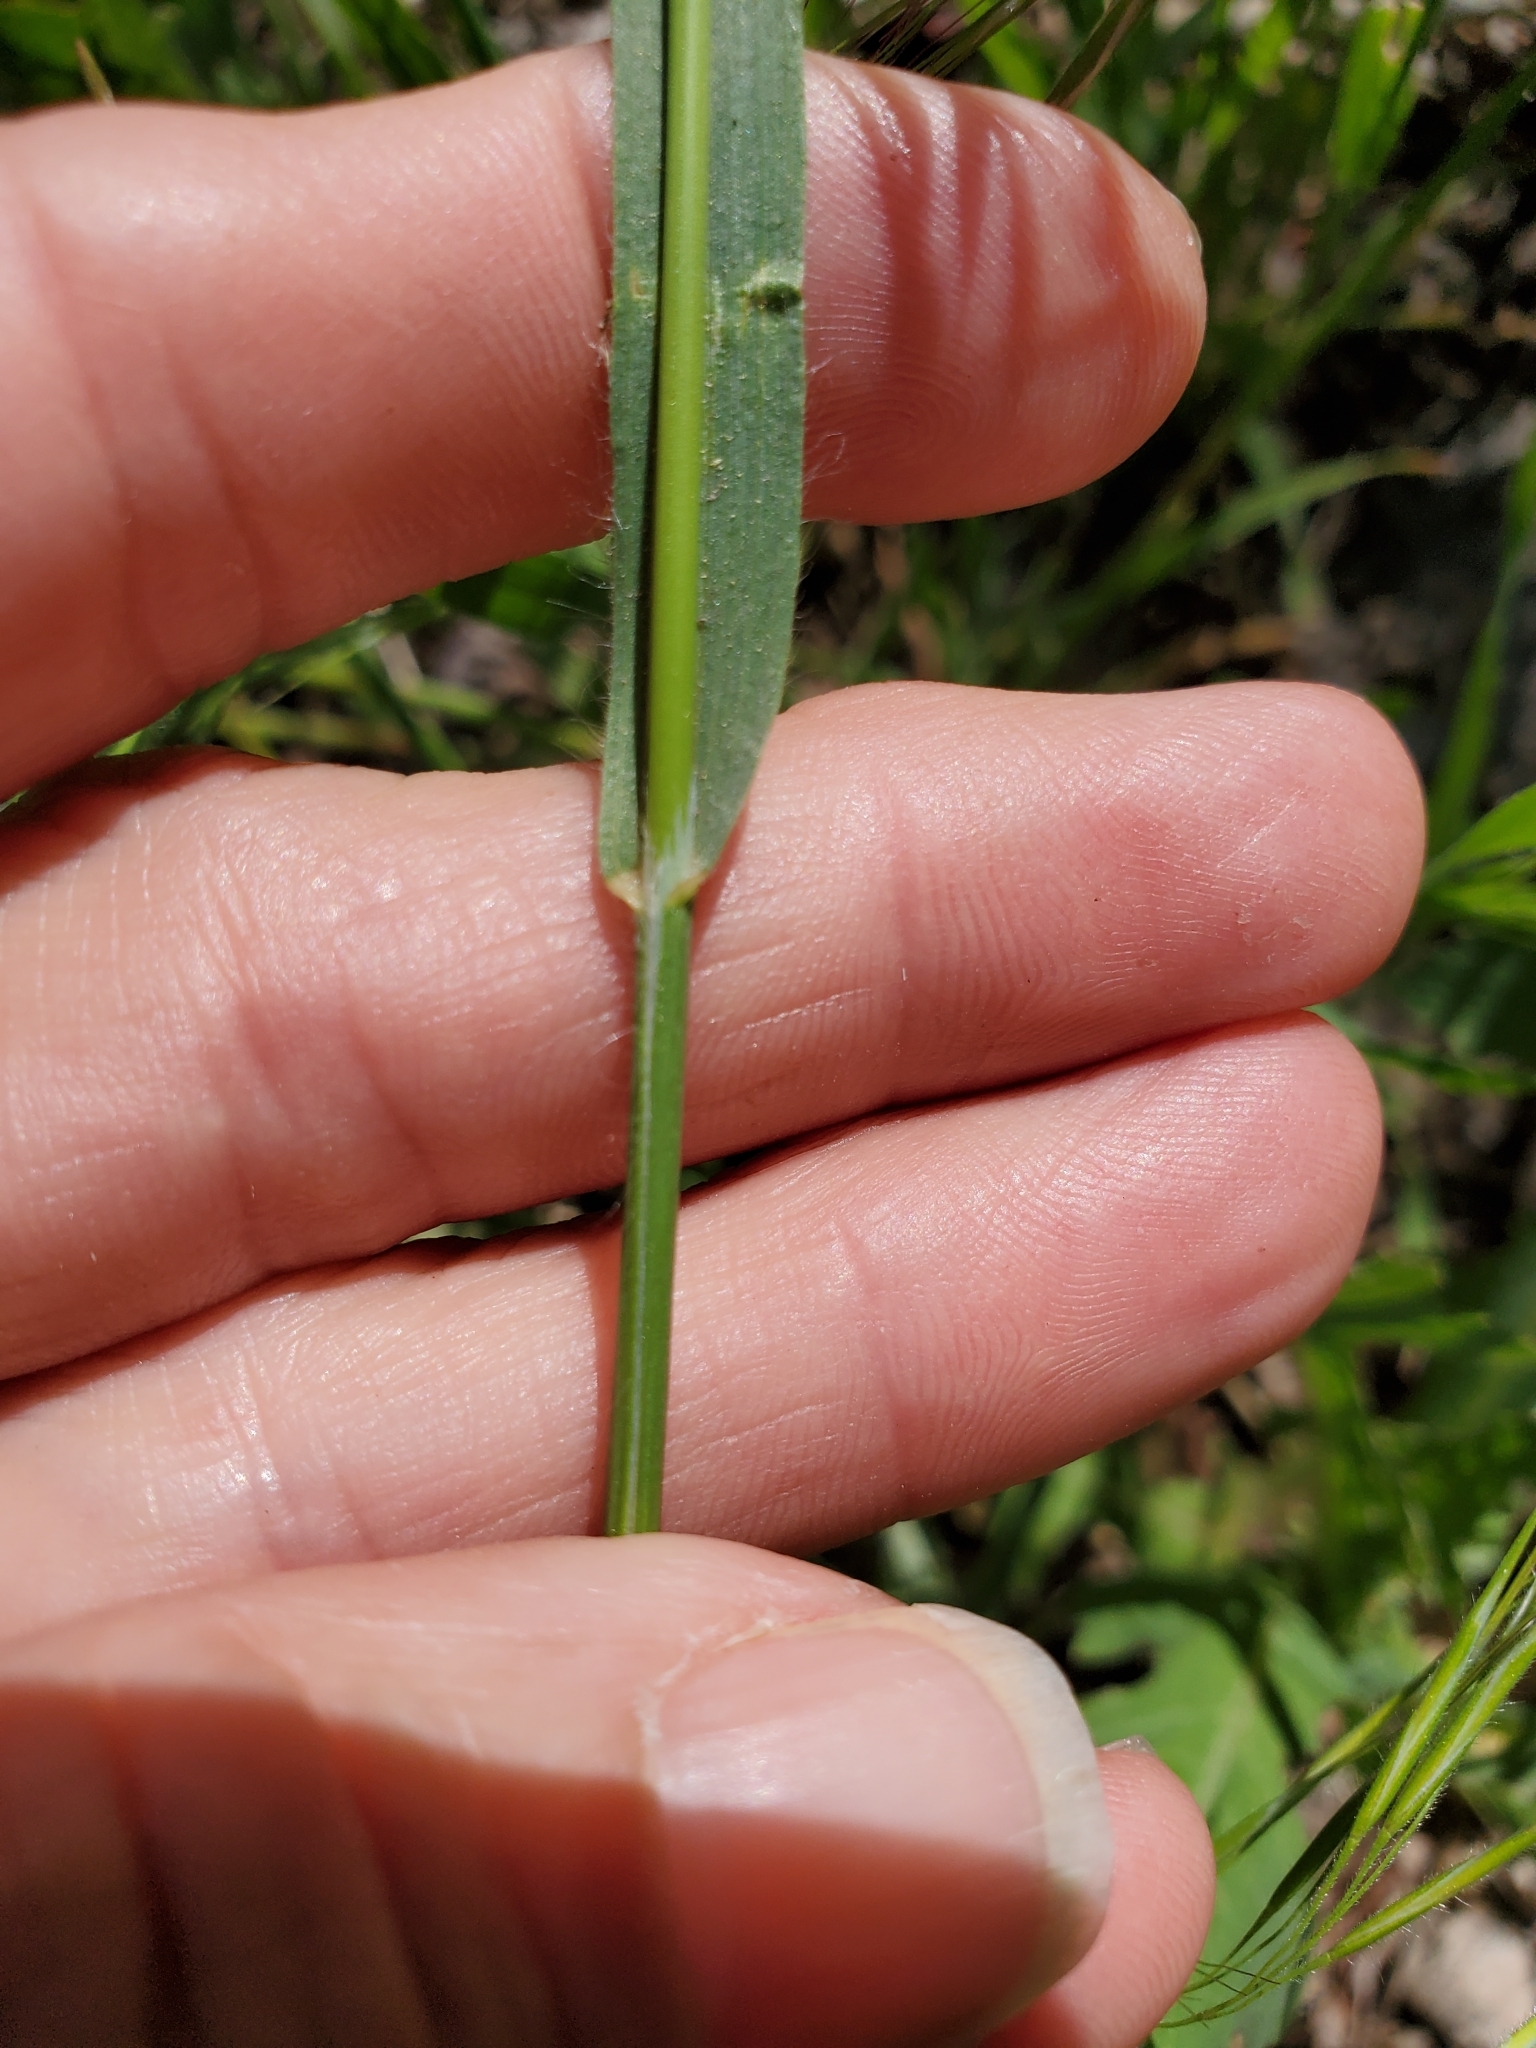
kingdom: Plantae
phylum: Tracheophyta
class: Liliopsida
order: Poales
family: Poaceae
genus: Bromus
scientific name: Bromus tectorum
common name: Cheatgrass
